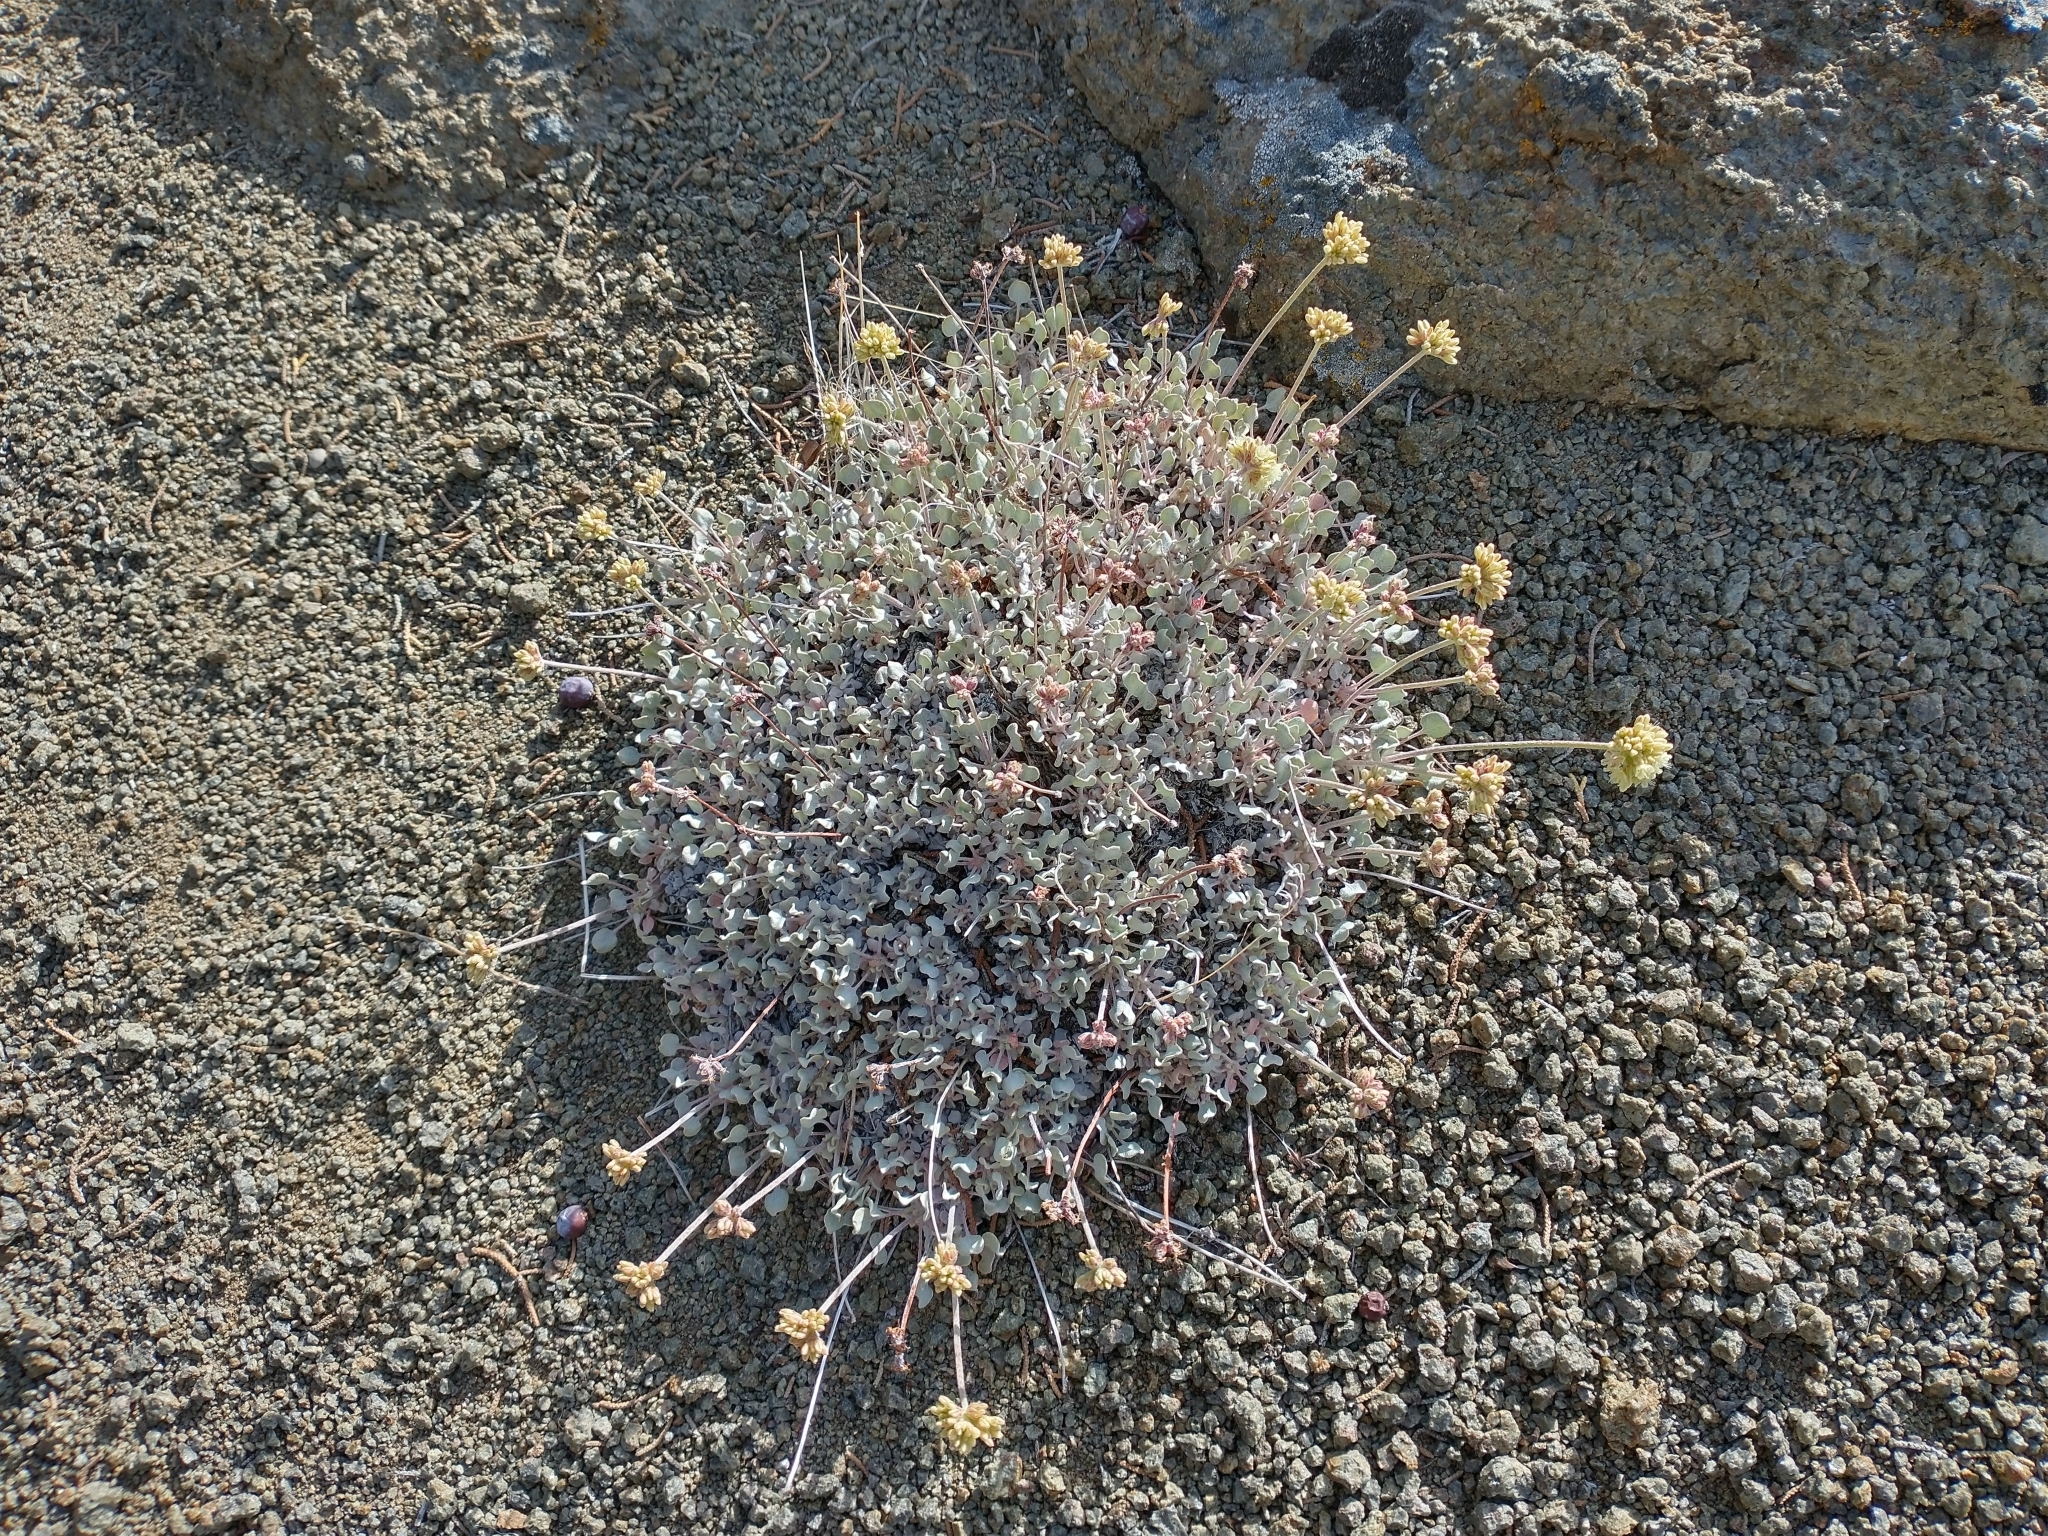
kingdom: Plantae
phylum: Tracheophyta
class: Magnoliopsida
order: Caryophyllales
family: Polygonaceae
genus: Eriogonum
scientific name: Eriogonum ovalifolium
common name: Cushion buckwheat
